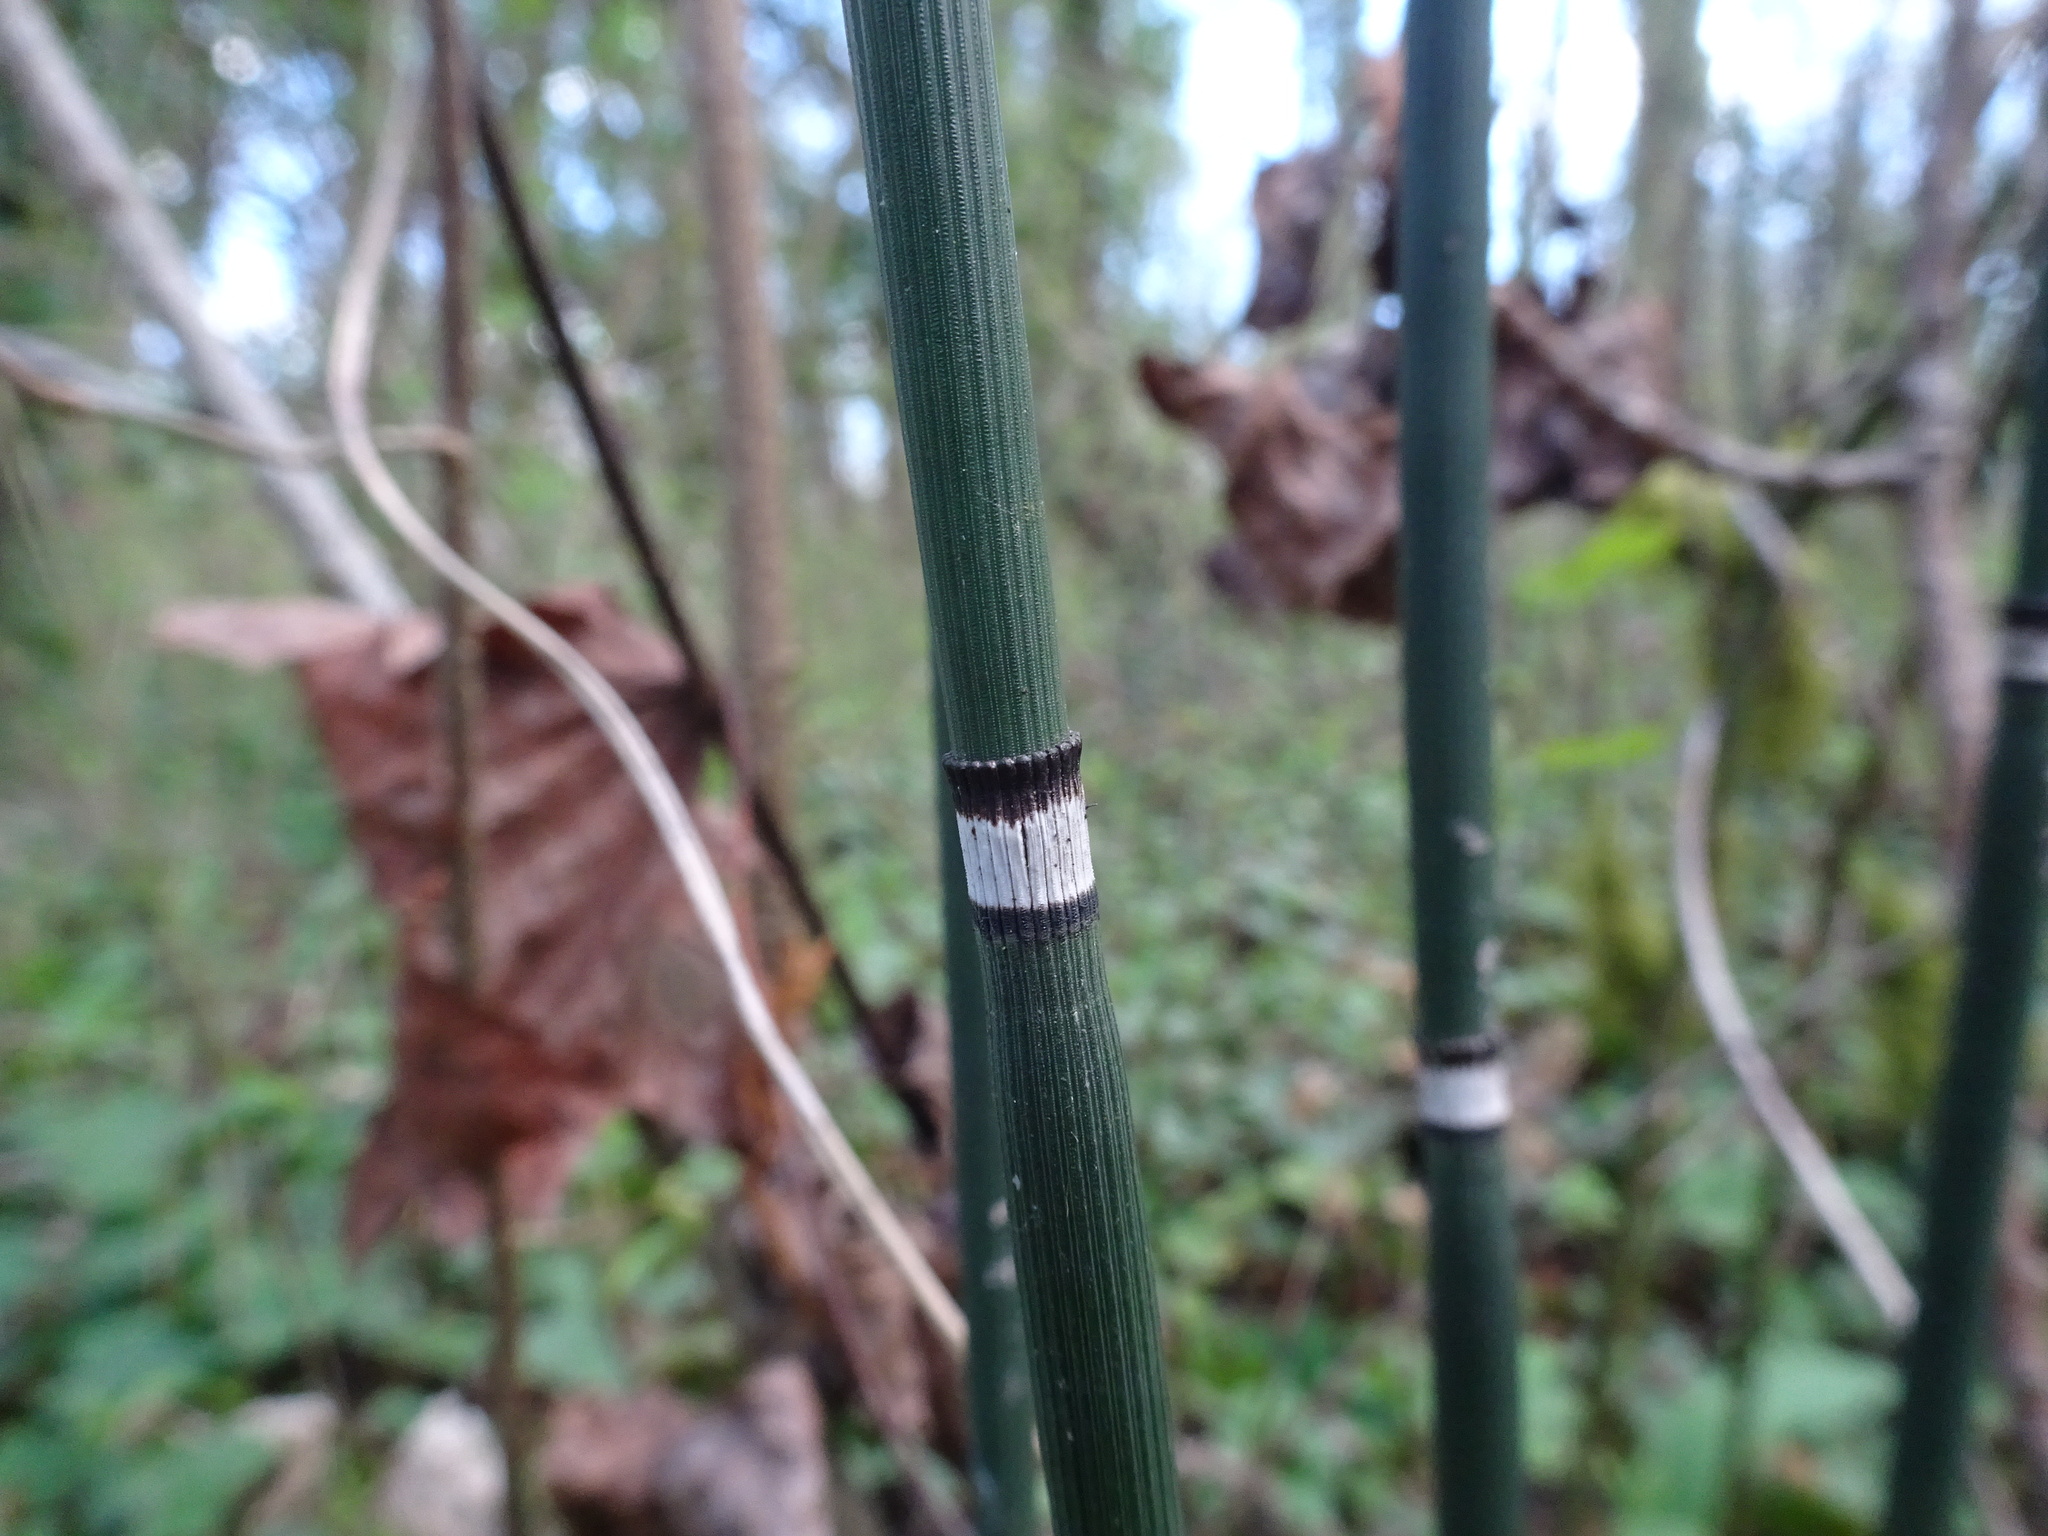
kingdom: Plantae
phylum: Tracheophyta
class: Polypodiopsida
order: Equisetales
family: Equisetaceae
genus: Equisetum
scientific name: Equisetum hyemale
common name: Rough horsetail
